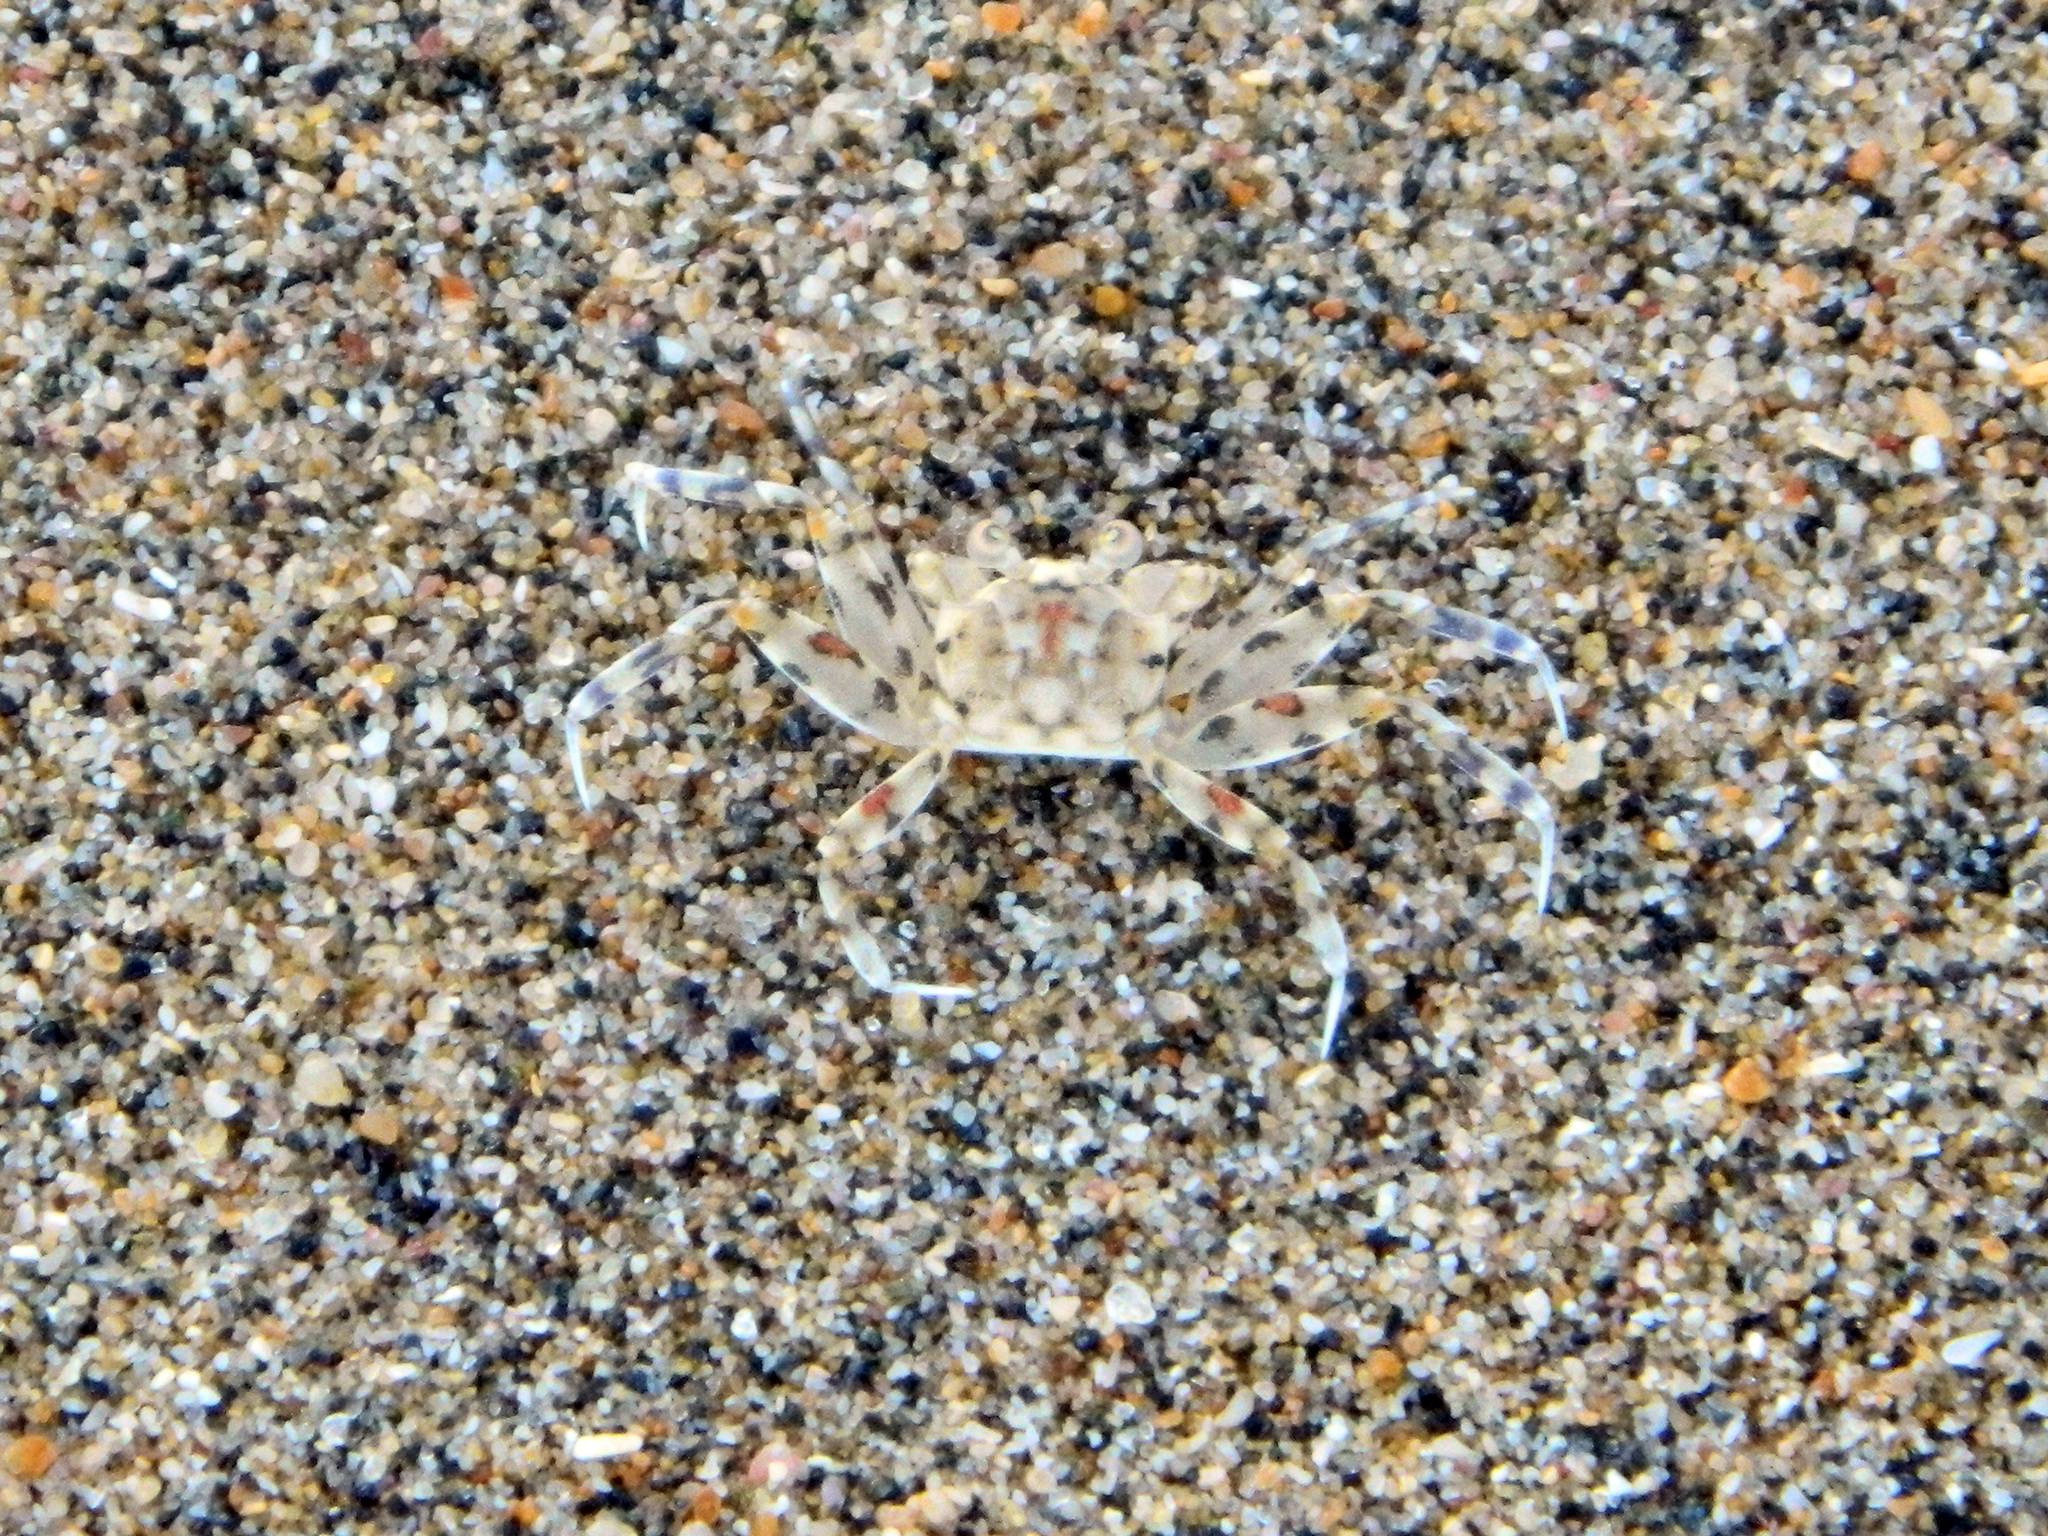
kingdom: Animalia
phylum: Arthropoda
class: Malacostraca
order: Decapoda
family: Ocypodidae
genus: Ocypode
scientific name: Ocypode occidentalis
